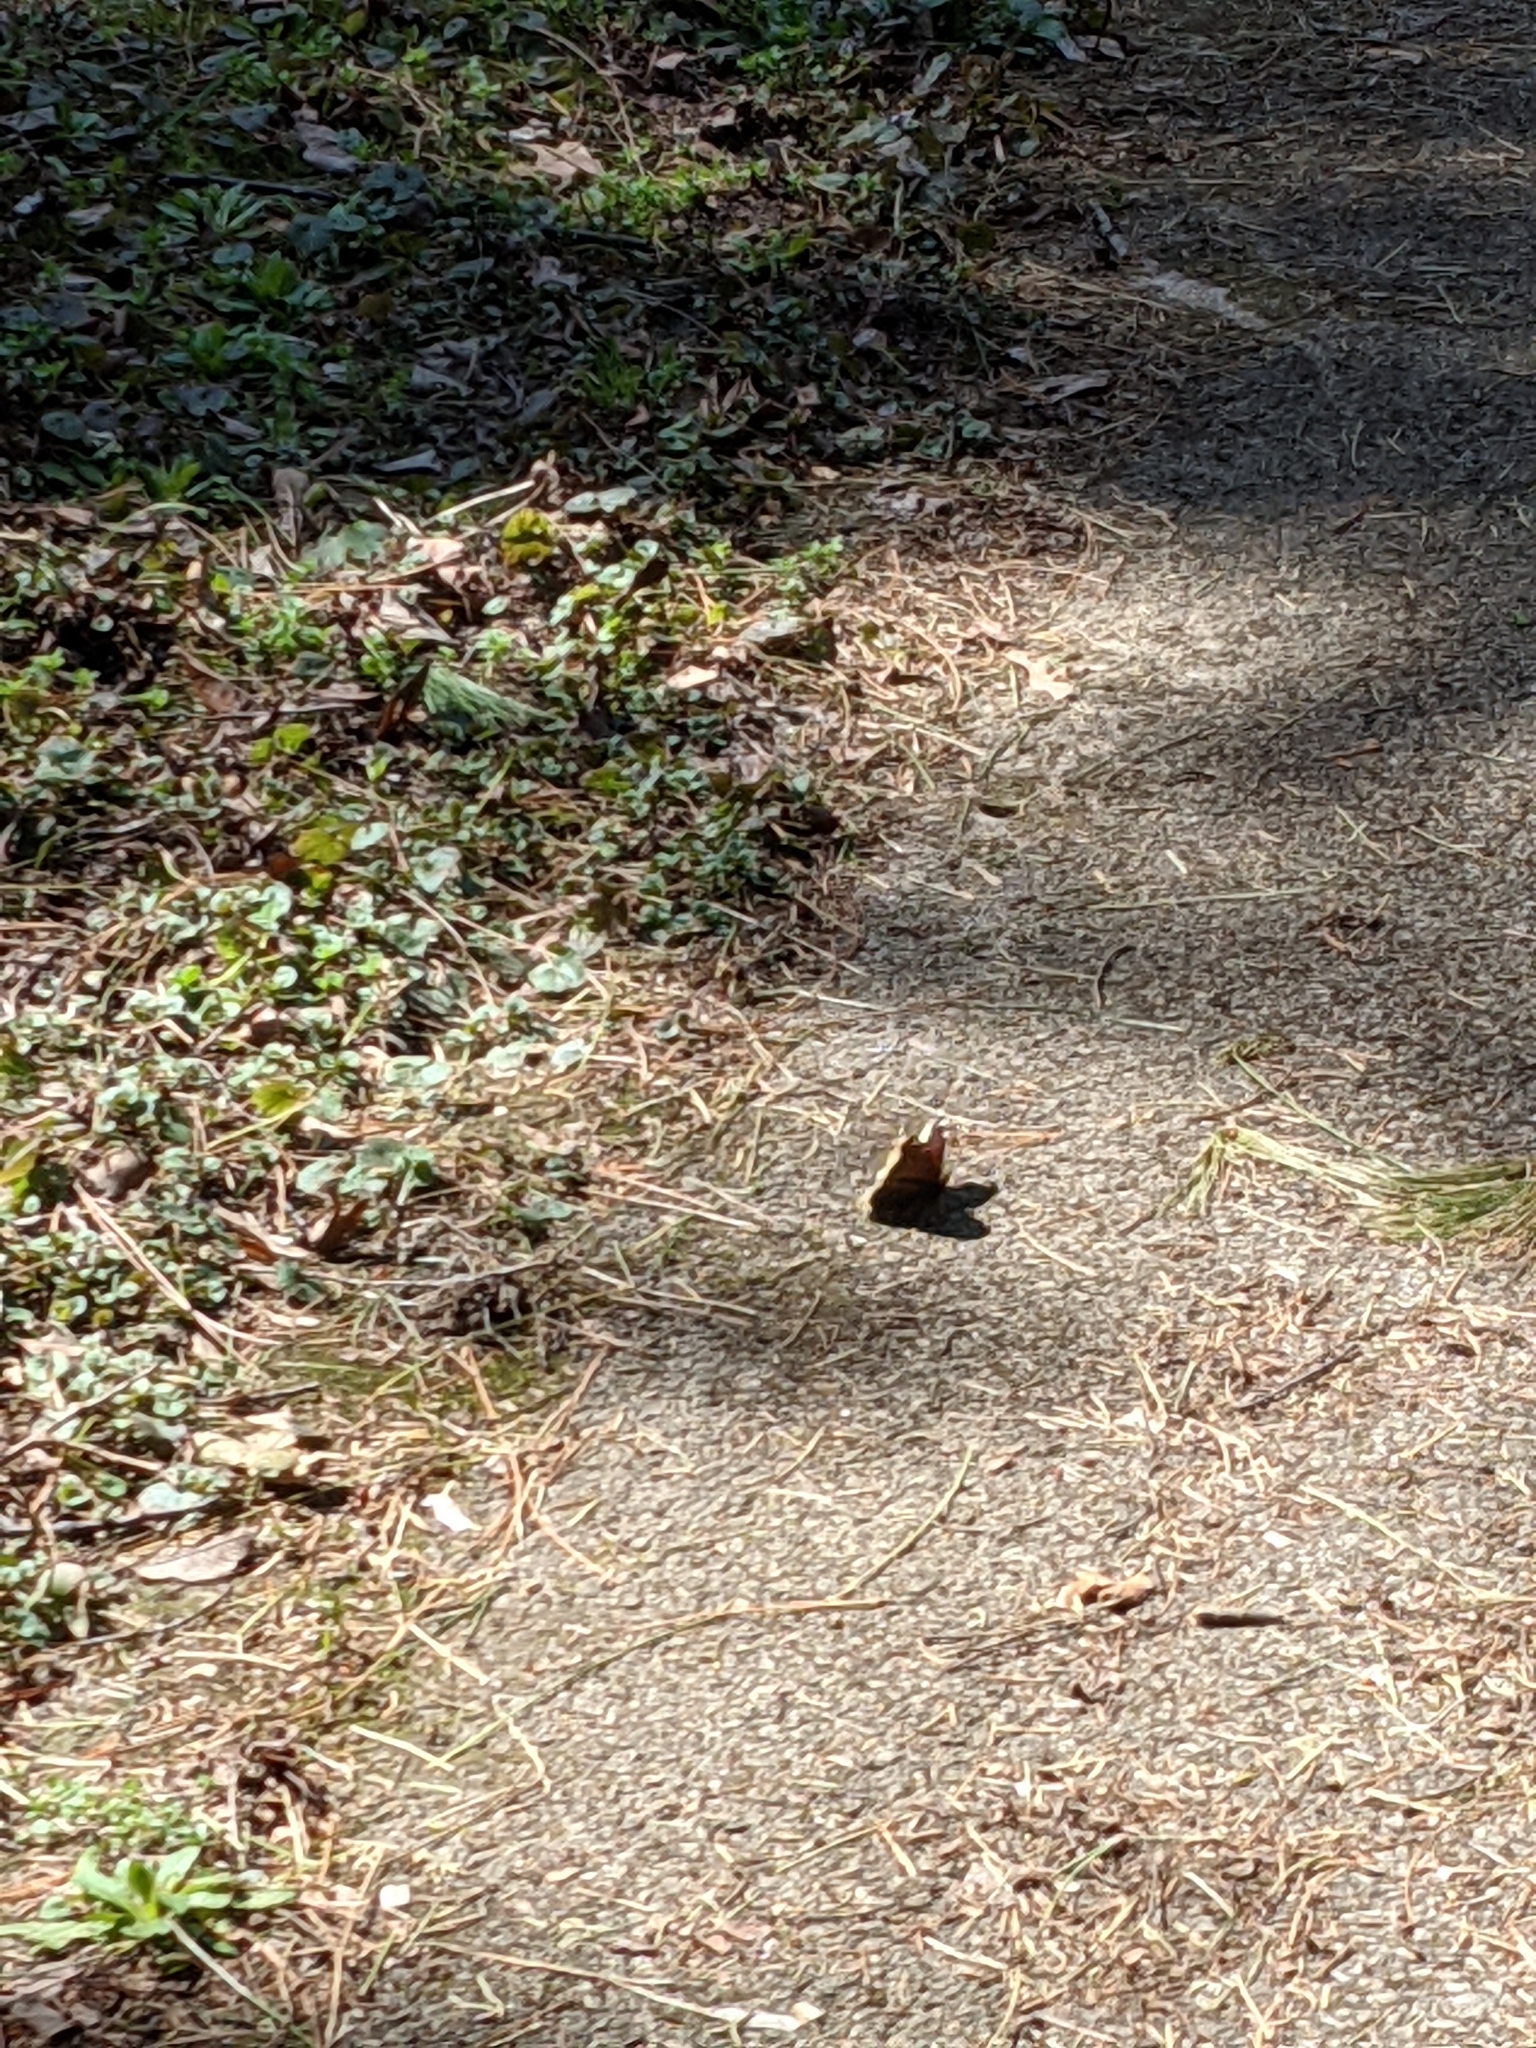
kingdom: Animalia
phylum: Arthropoda
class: Insecta
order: Lepidoptera
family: Nymphalidae
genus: Nymphalis
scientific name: Nymphalis antiopa
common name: Camberwell beauty
